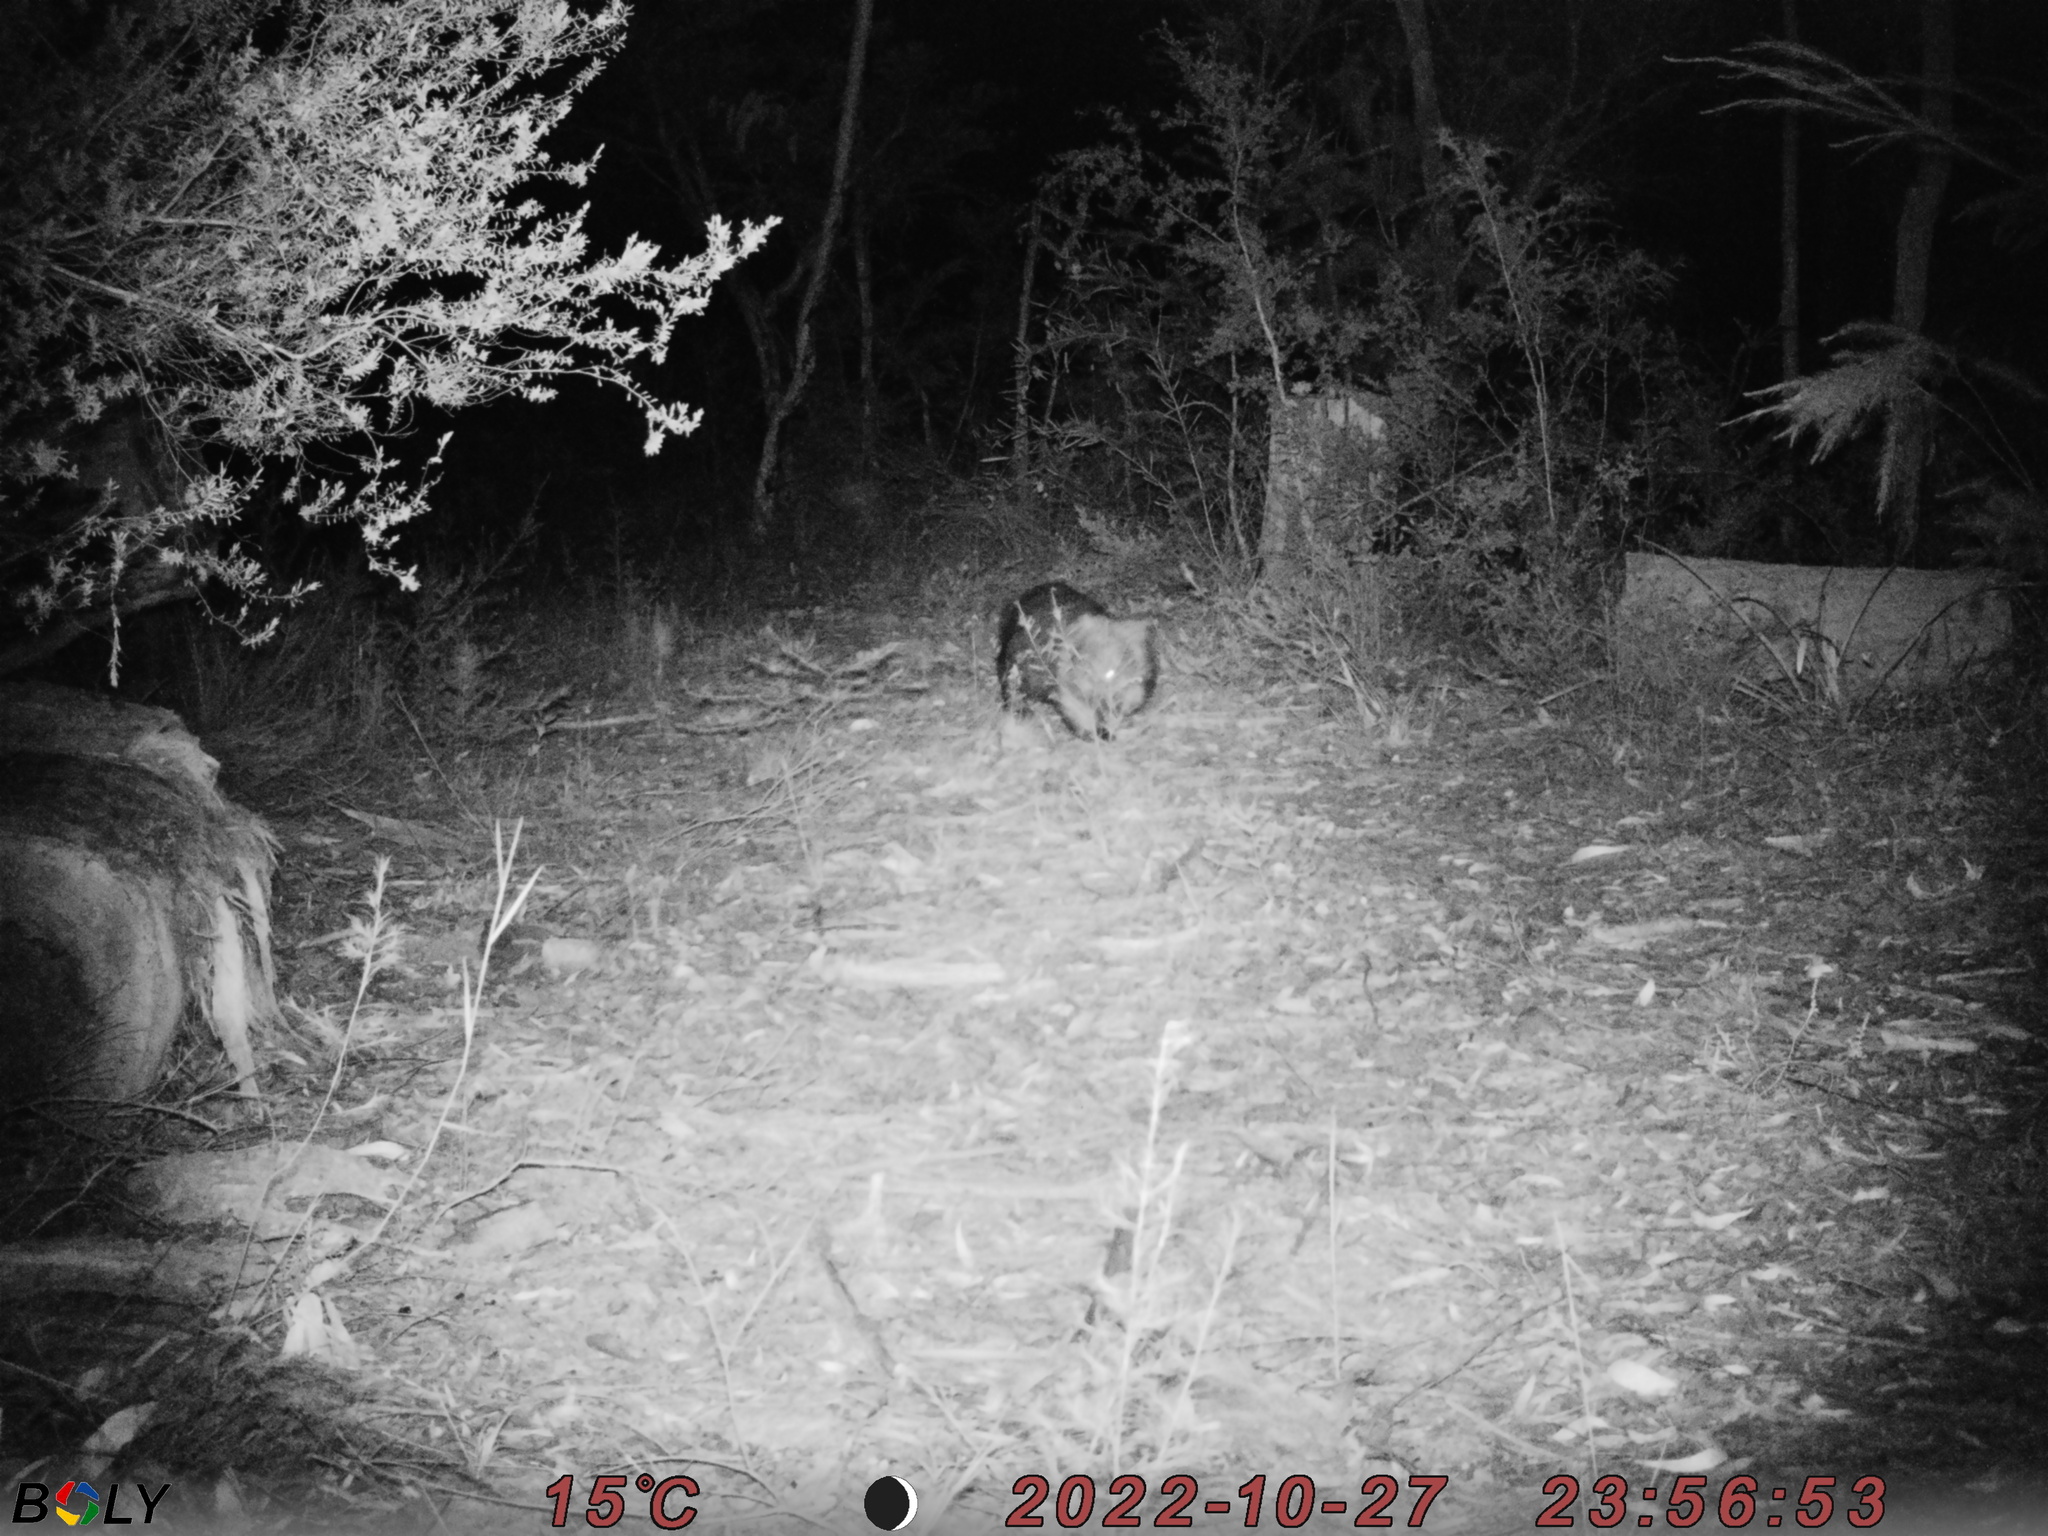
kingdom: Animalia
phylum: Chordata
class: Mammalia
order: Diprotodontia
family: Vombatidae
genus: Vombatus
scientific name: Vombatus ursinus
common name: Common wombat
